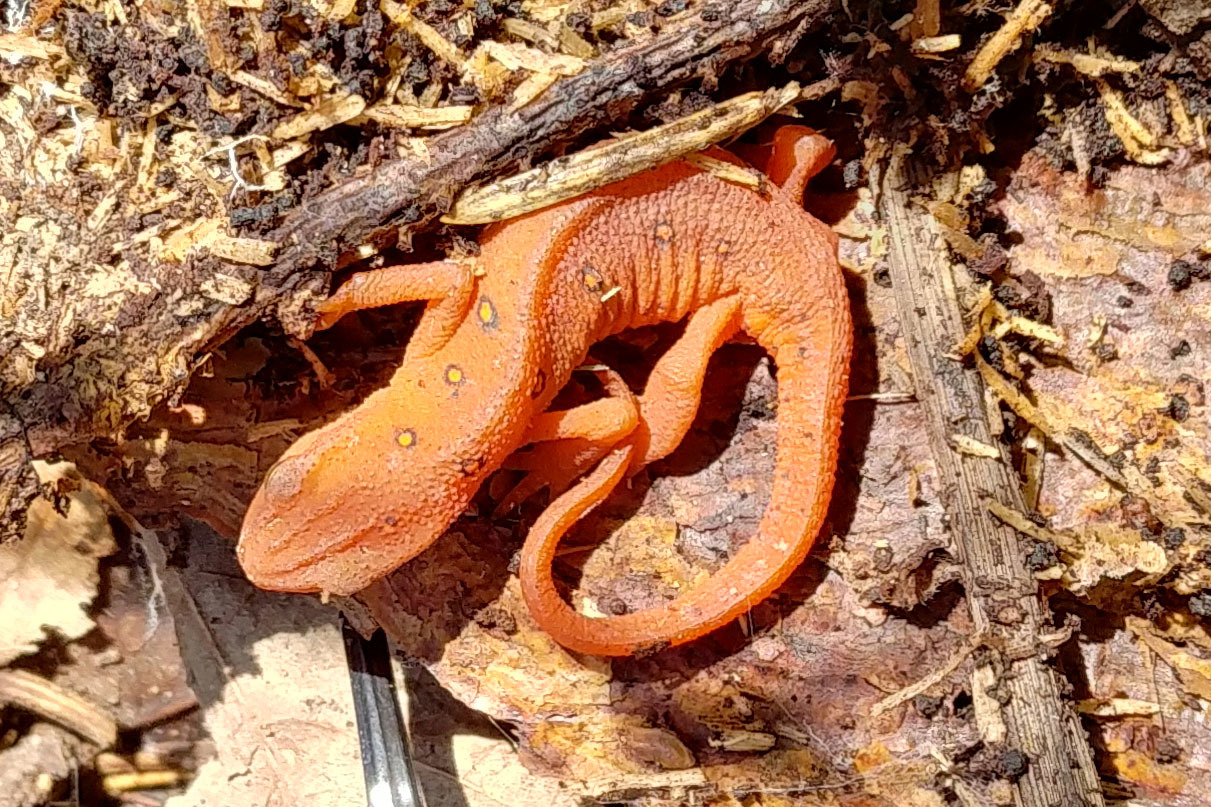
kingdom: Animalia
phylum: Chordata
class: Amphibia
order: Caudata
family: Salamandridae
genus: Notophthalmus
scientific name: Notophthalmus viridescens
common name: Eastern newt
